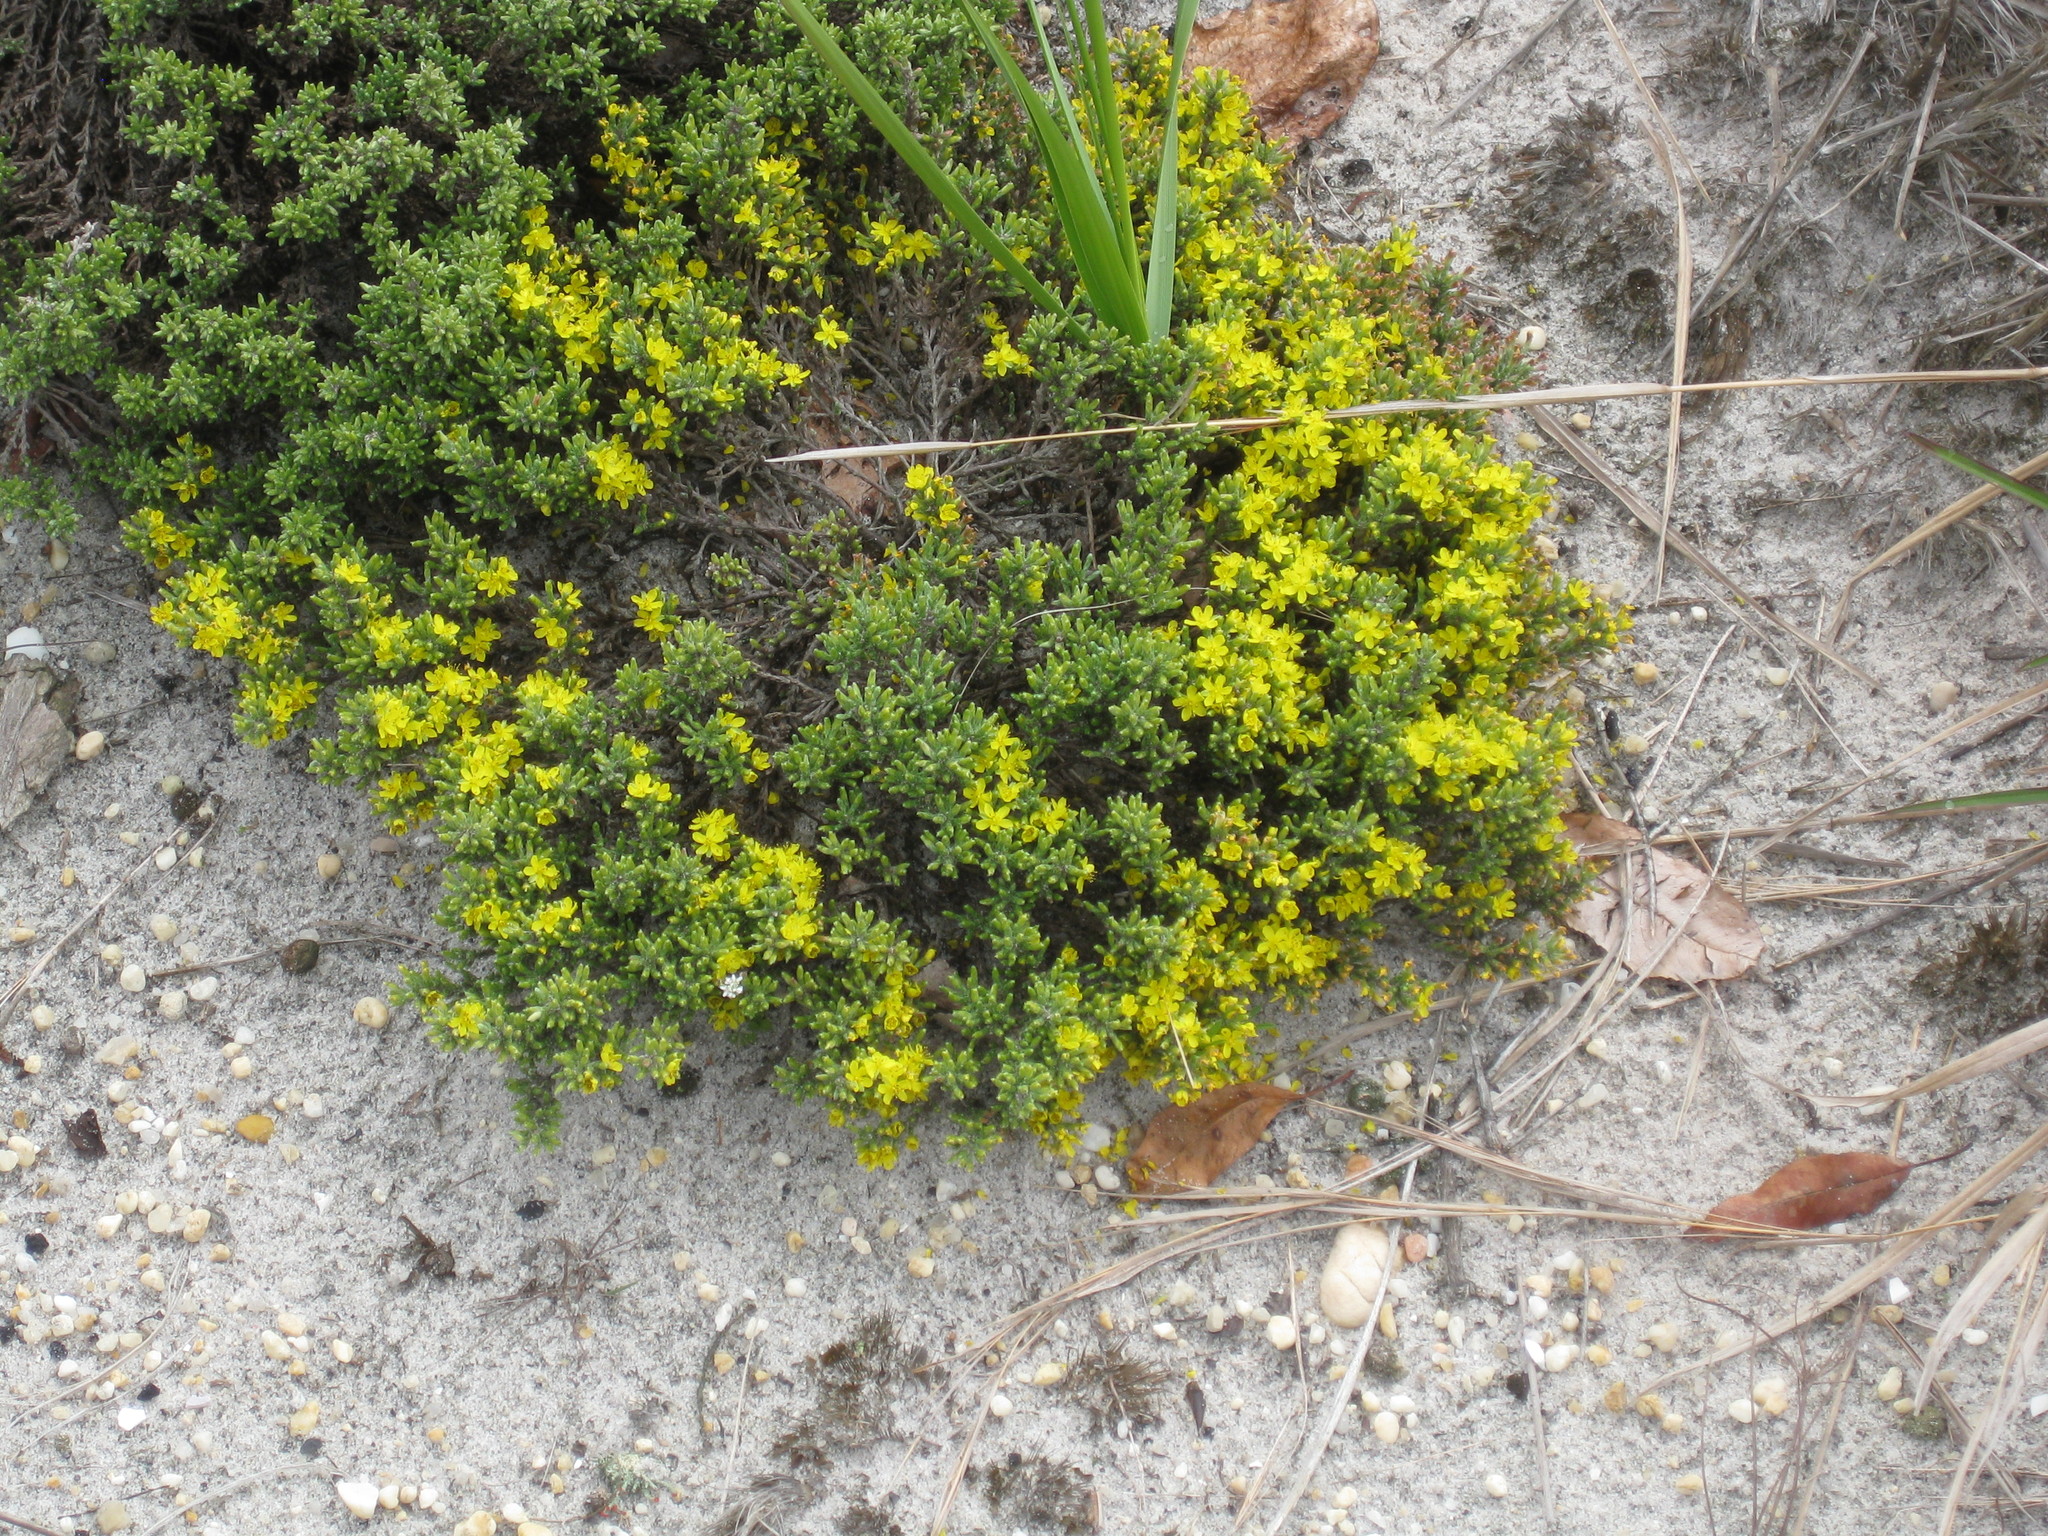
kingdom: Plantae
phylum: Tracheophyta
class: Magnoliopsida
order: Malvales
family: Cistaceae
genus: Hudsonia
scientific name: Hudsonia tomentosa
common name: Beach-heath
